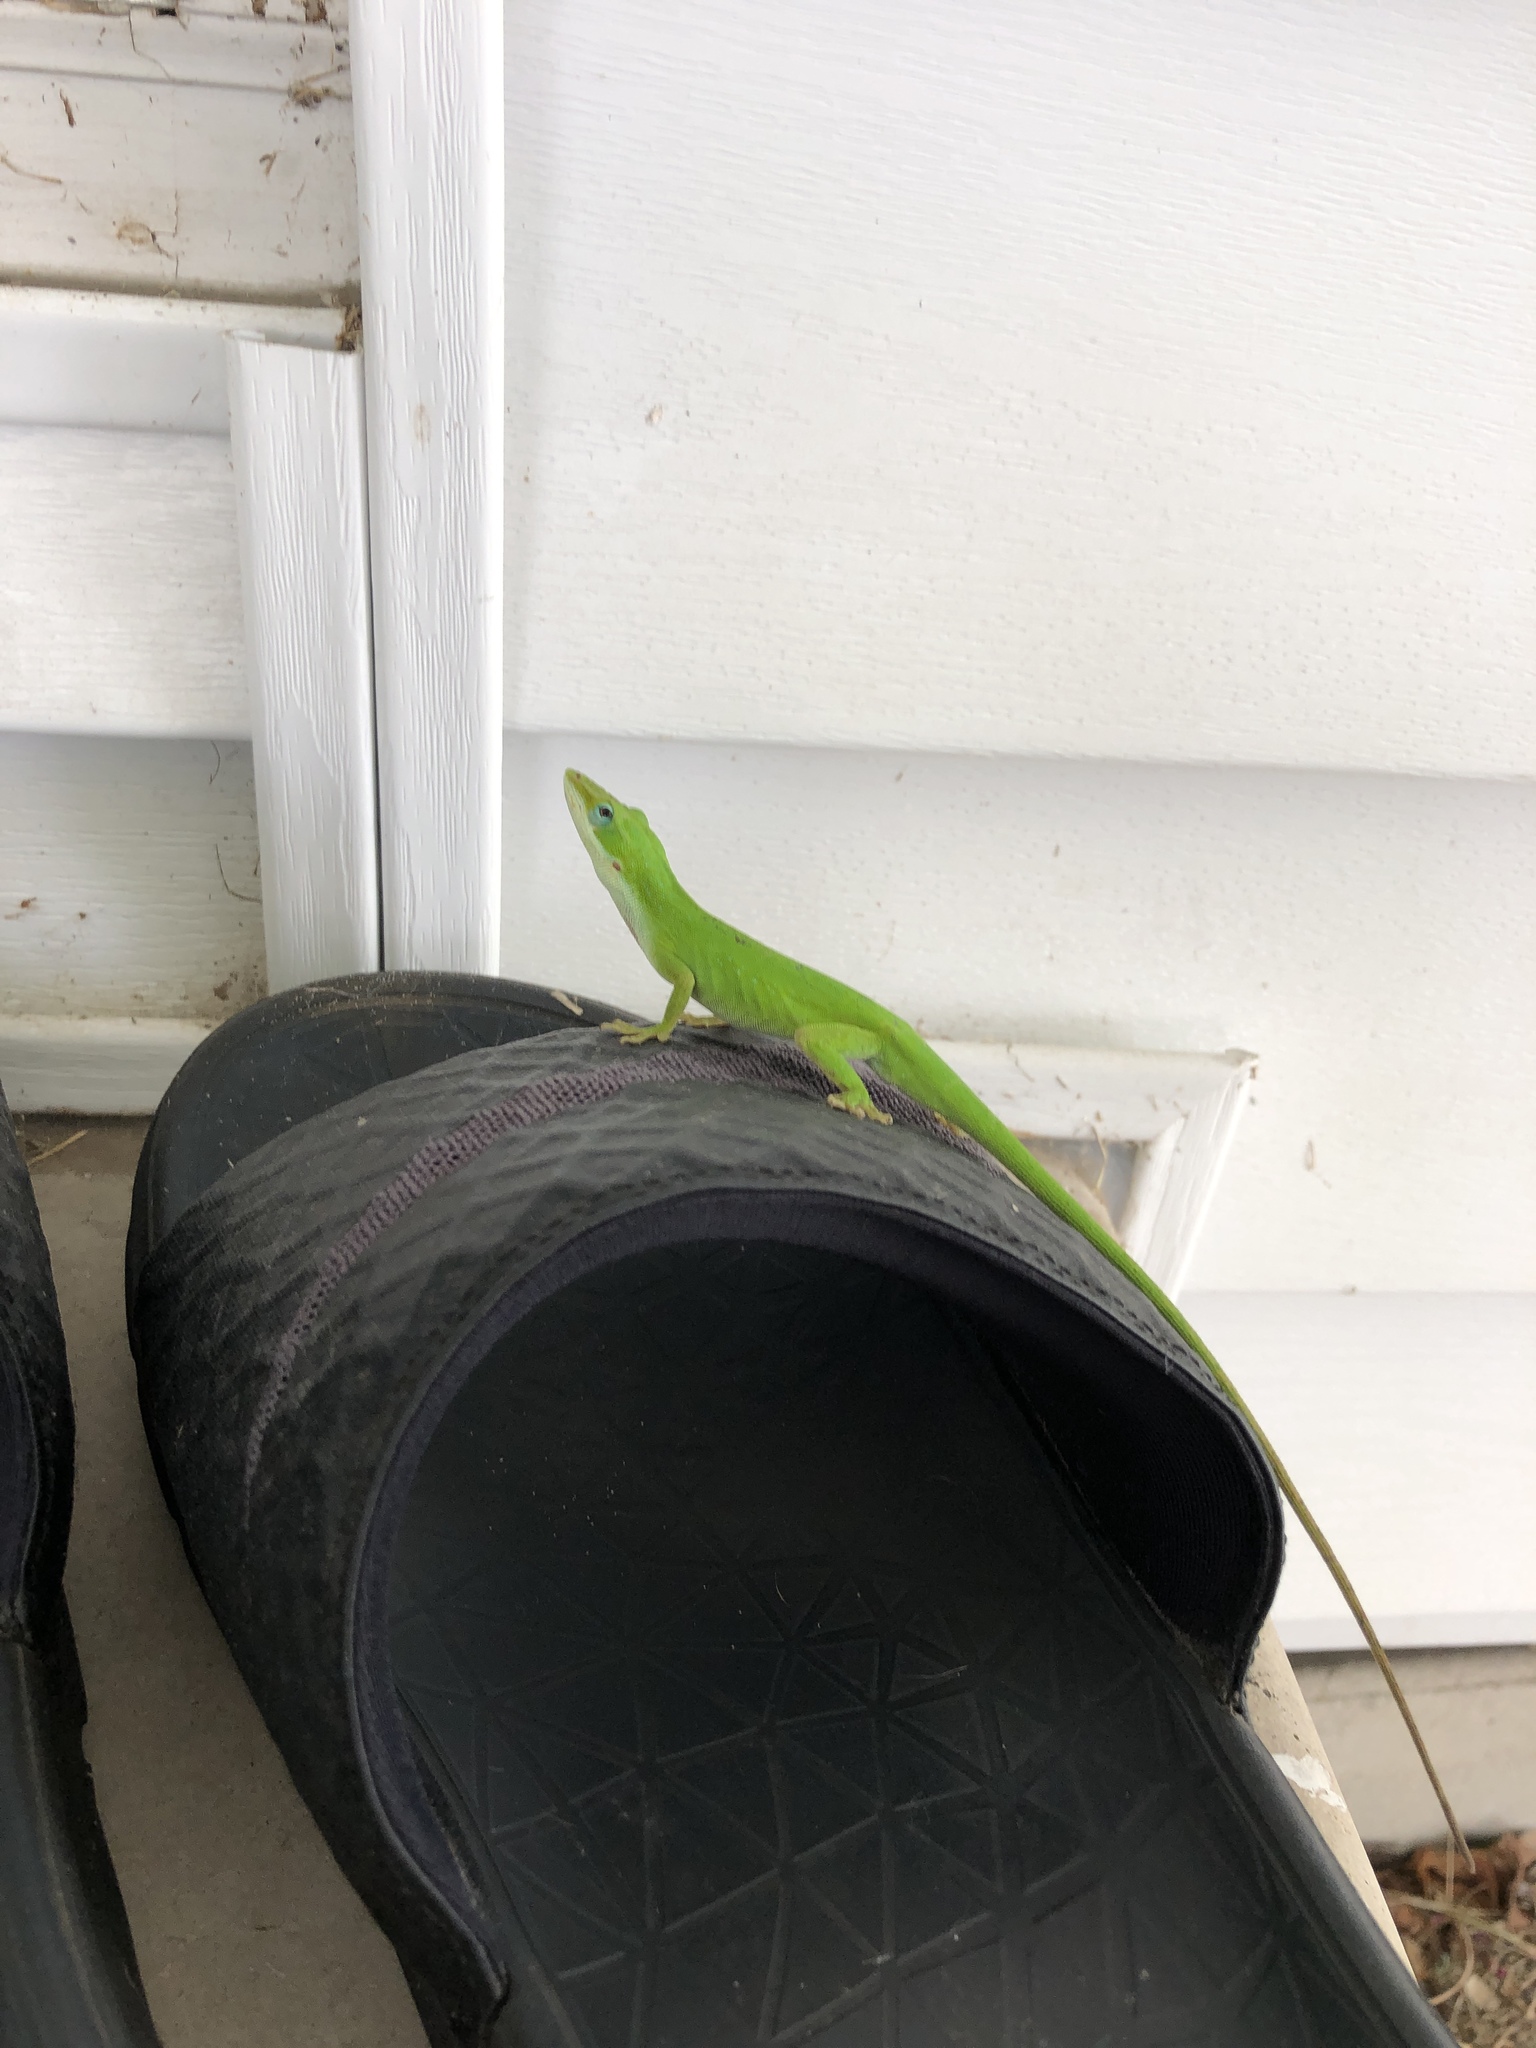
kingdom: Animalia
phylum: Chordata
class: Squamata
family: Dactyloidae
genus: Anolis
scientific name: Anolis carolinensis
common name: Green anole
